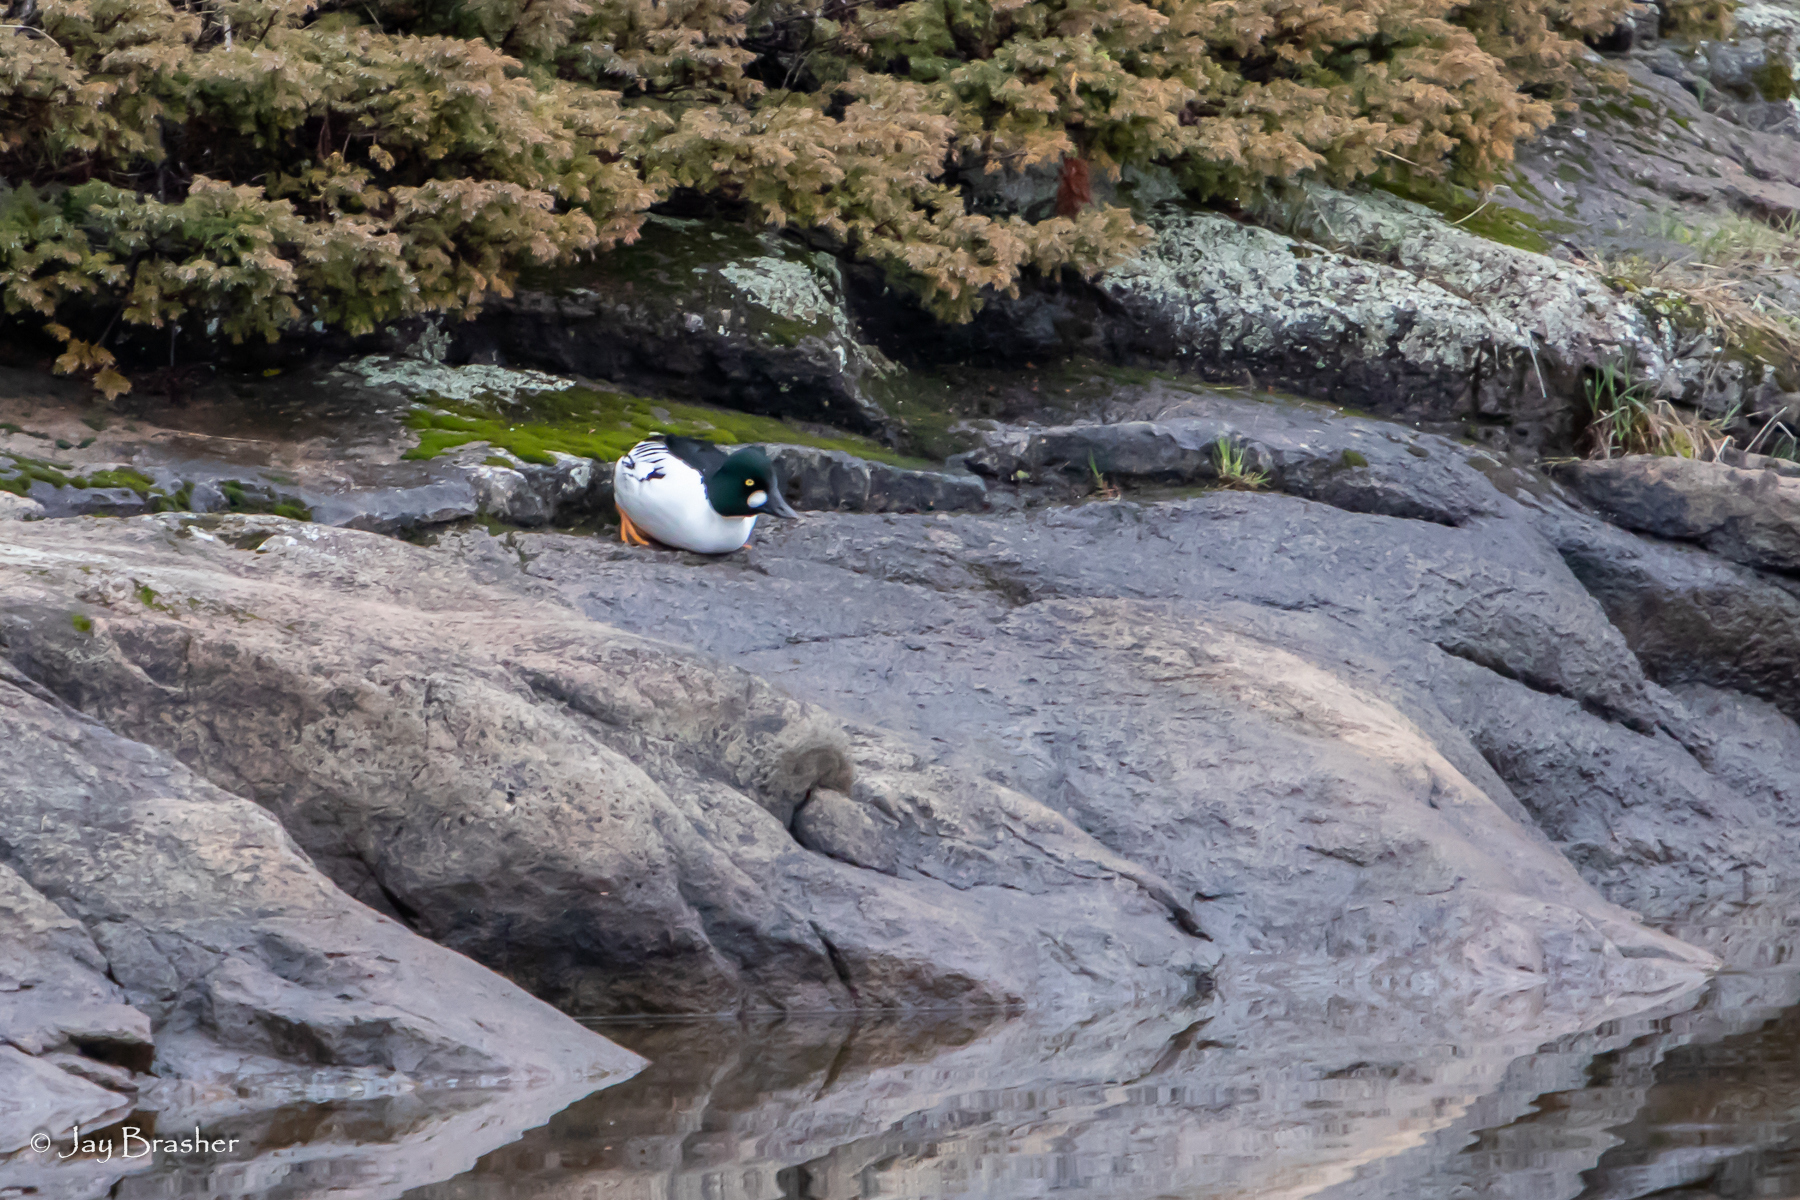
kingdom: Animalia
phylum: Chordata
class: Aves
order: Anseriformes
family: Anatidae
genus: Bucephala
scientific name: Bucephala clangula
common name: Common goldeneye
